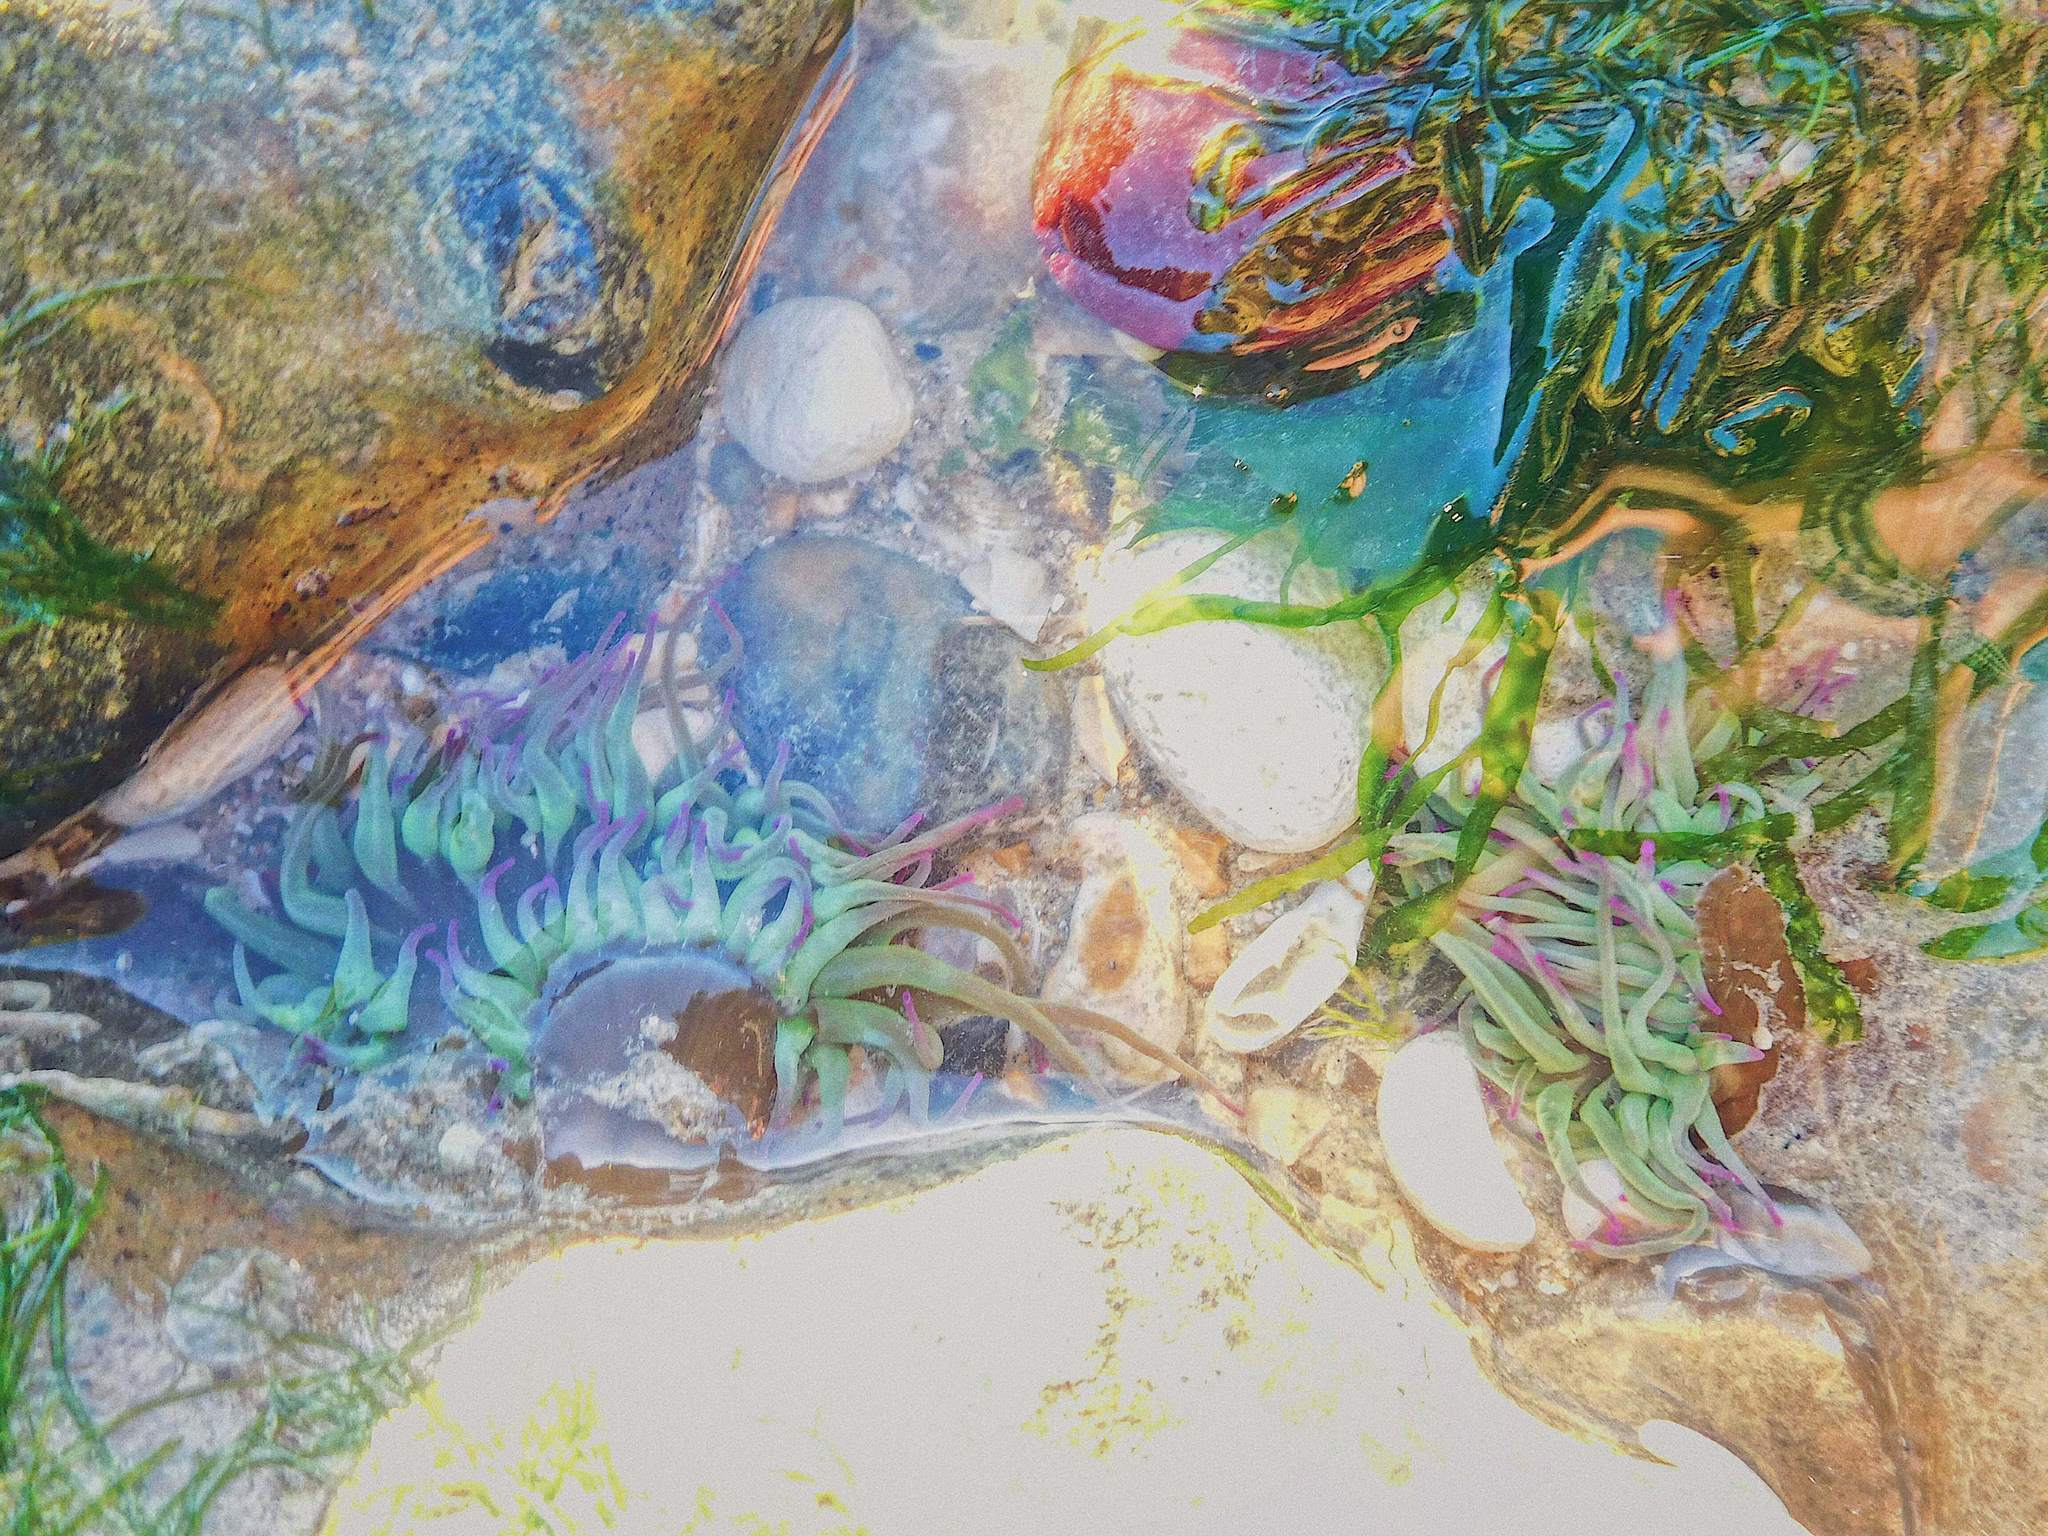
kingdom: Animalia
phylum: Cnidaria
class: Anthozoa
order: Actiniaria
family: Actiniidae
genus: Anemonia
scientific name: Anemonia viridis
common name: Snakelocks anemone
